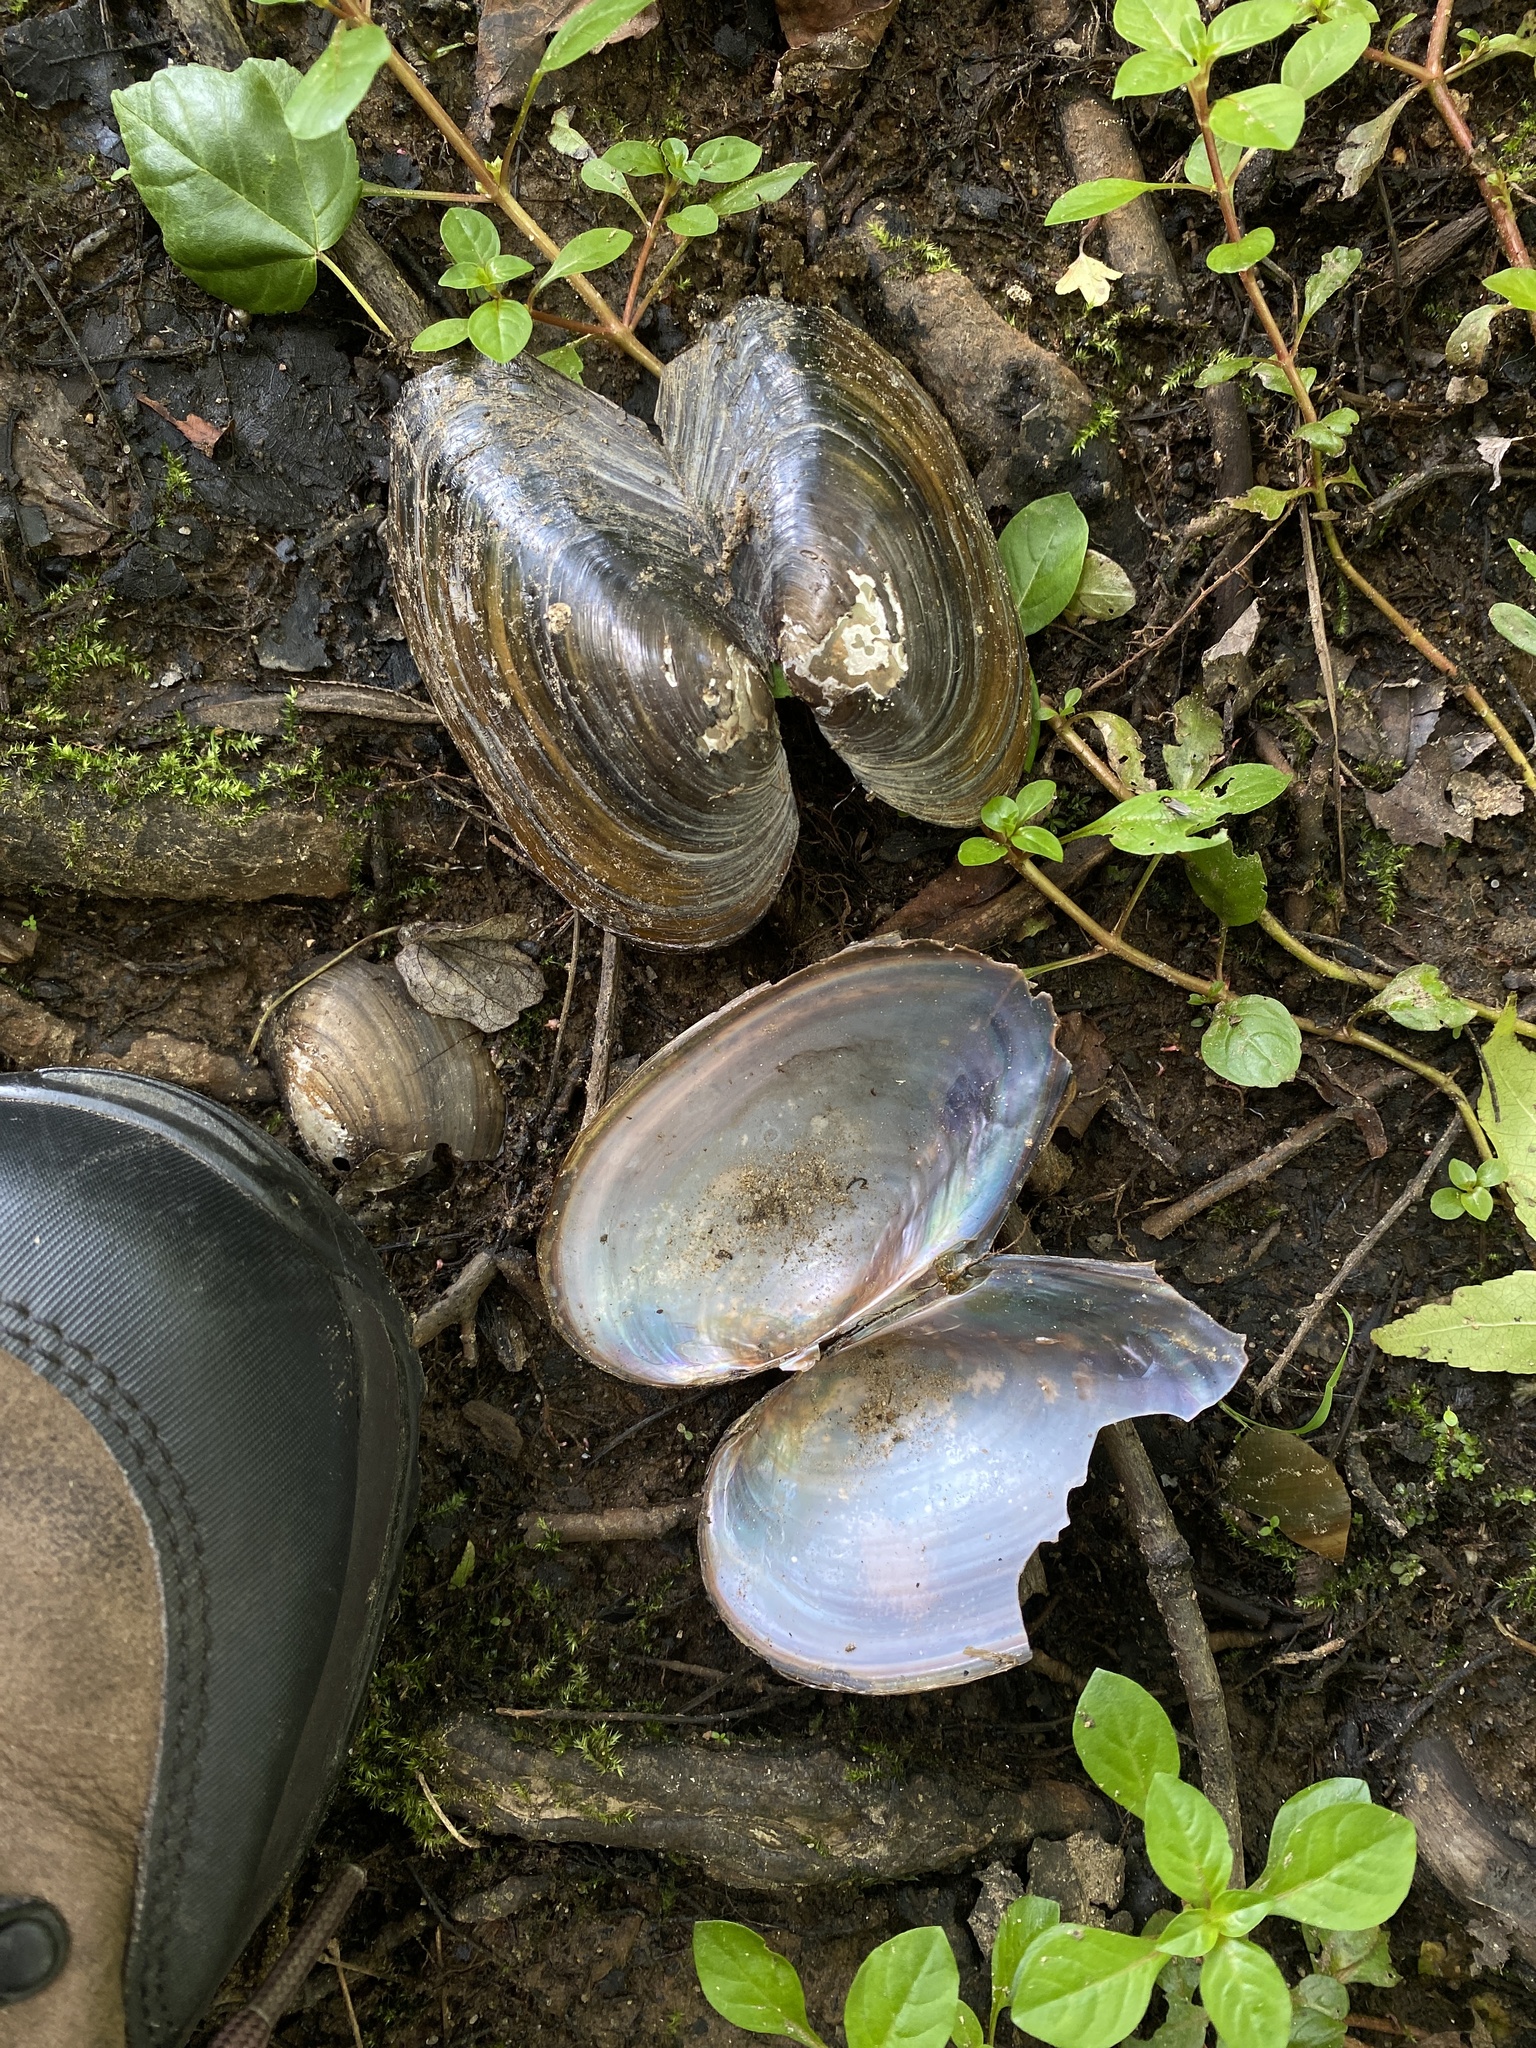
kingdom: Animalia
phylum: Mollusca
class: Bivalvia
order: Unionida
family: Unionidae
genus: Pyganodon
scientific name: Pyganodon cataracta
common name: Eastern floater
